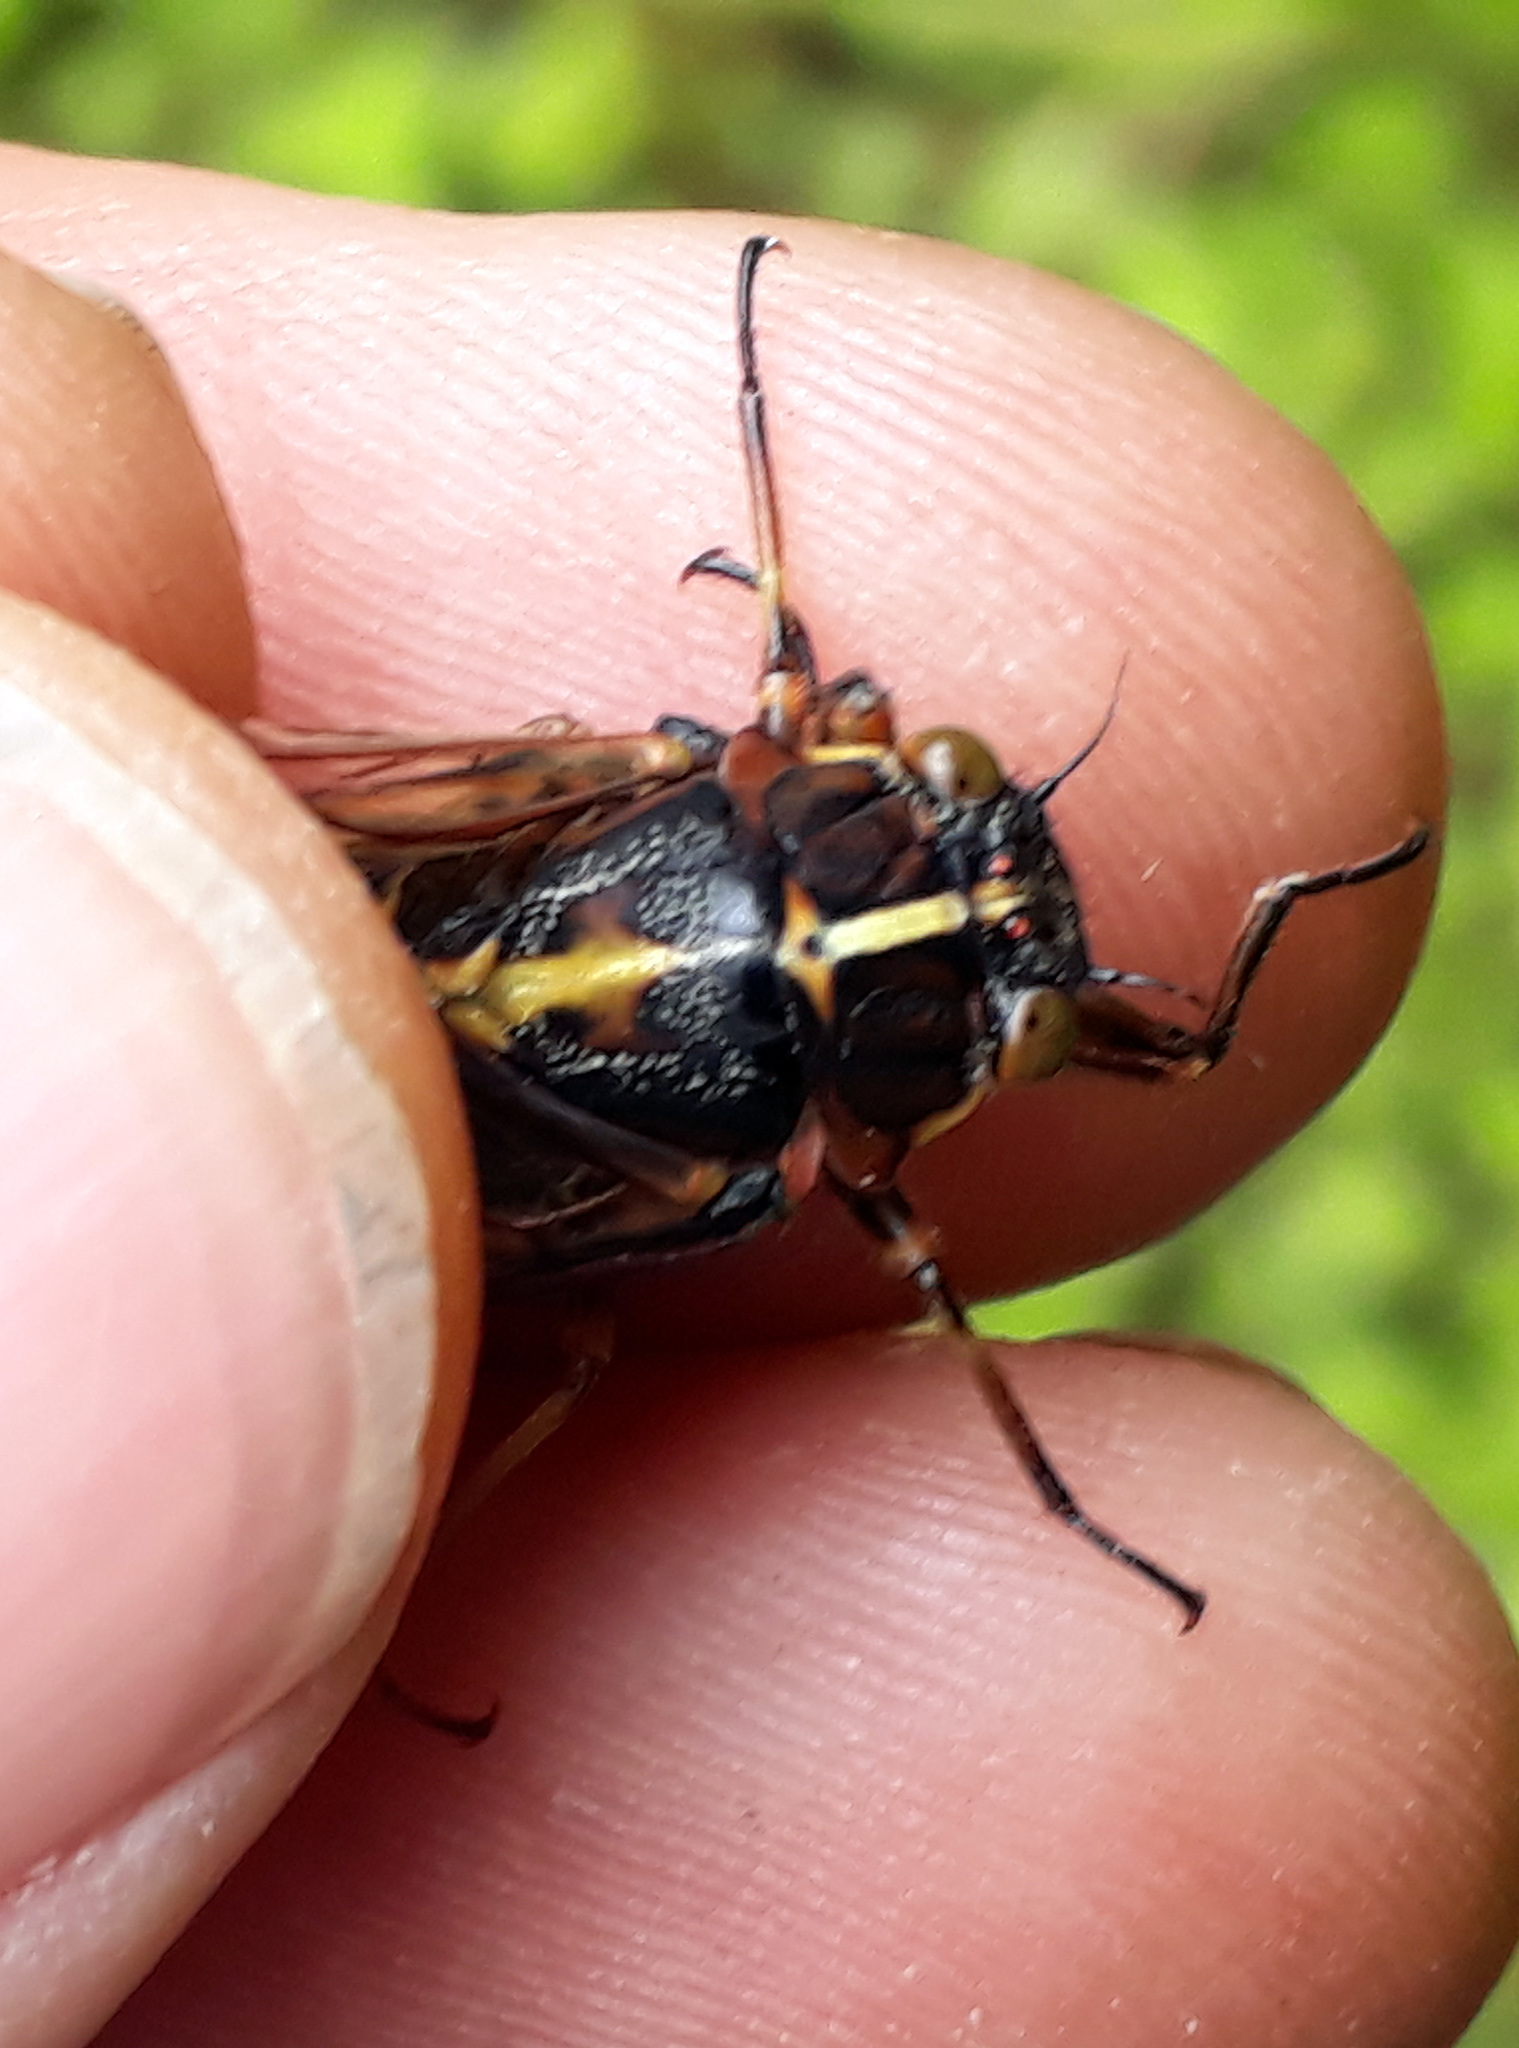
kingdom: Animalia
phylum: Arthropoda
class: Insecta
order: Hemiptera
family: Cicadidae
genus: Kikihia
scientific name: Kikihia longula
